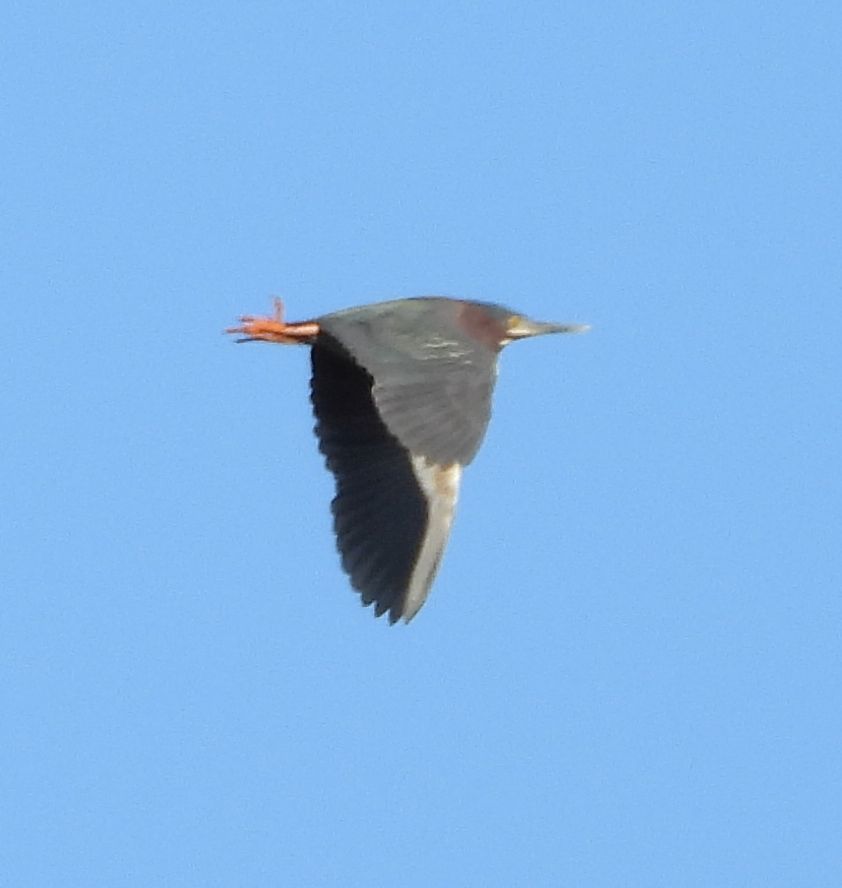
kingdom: Animalia
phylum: Chordata
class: Aves
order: Pelecaniformes
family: Ardeidae
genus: Butorides
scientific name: Butorides virescens
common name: Green heron
